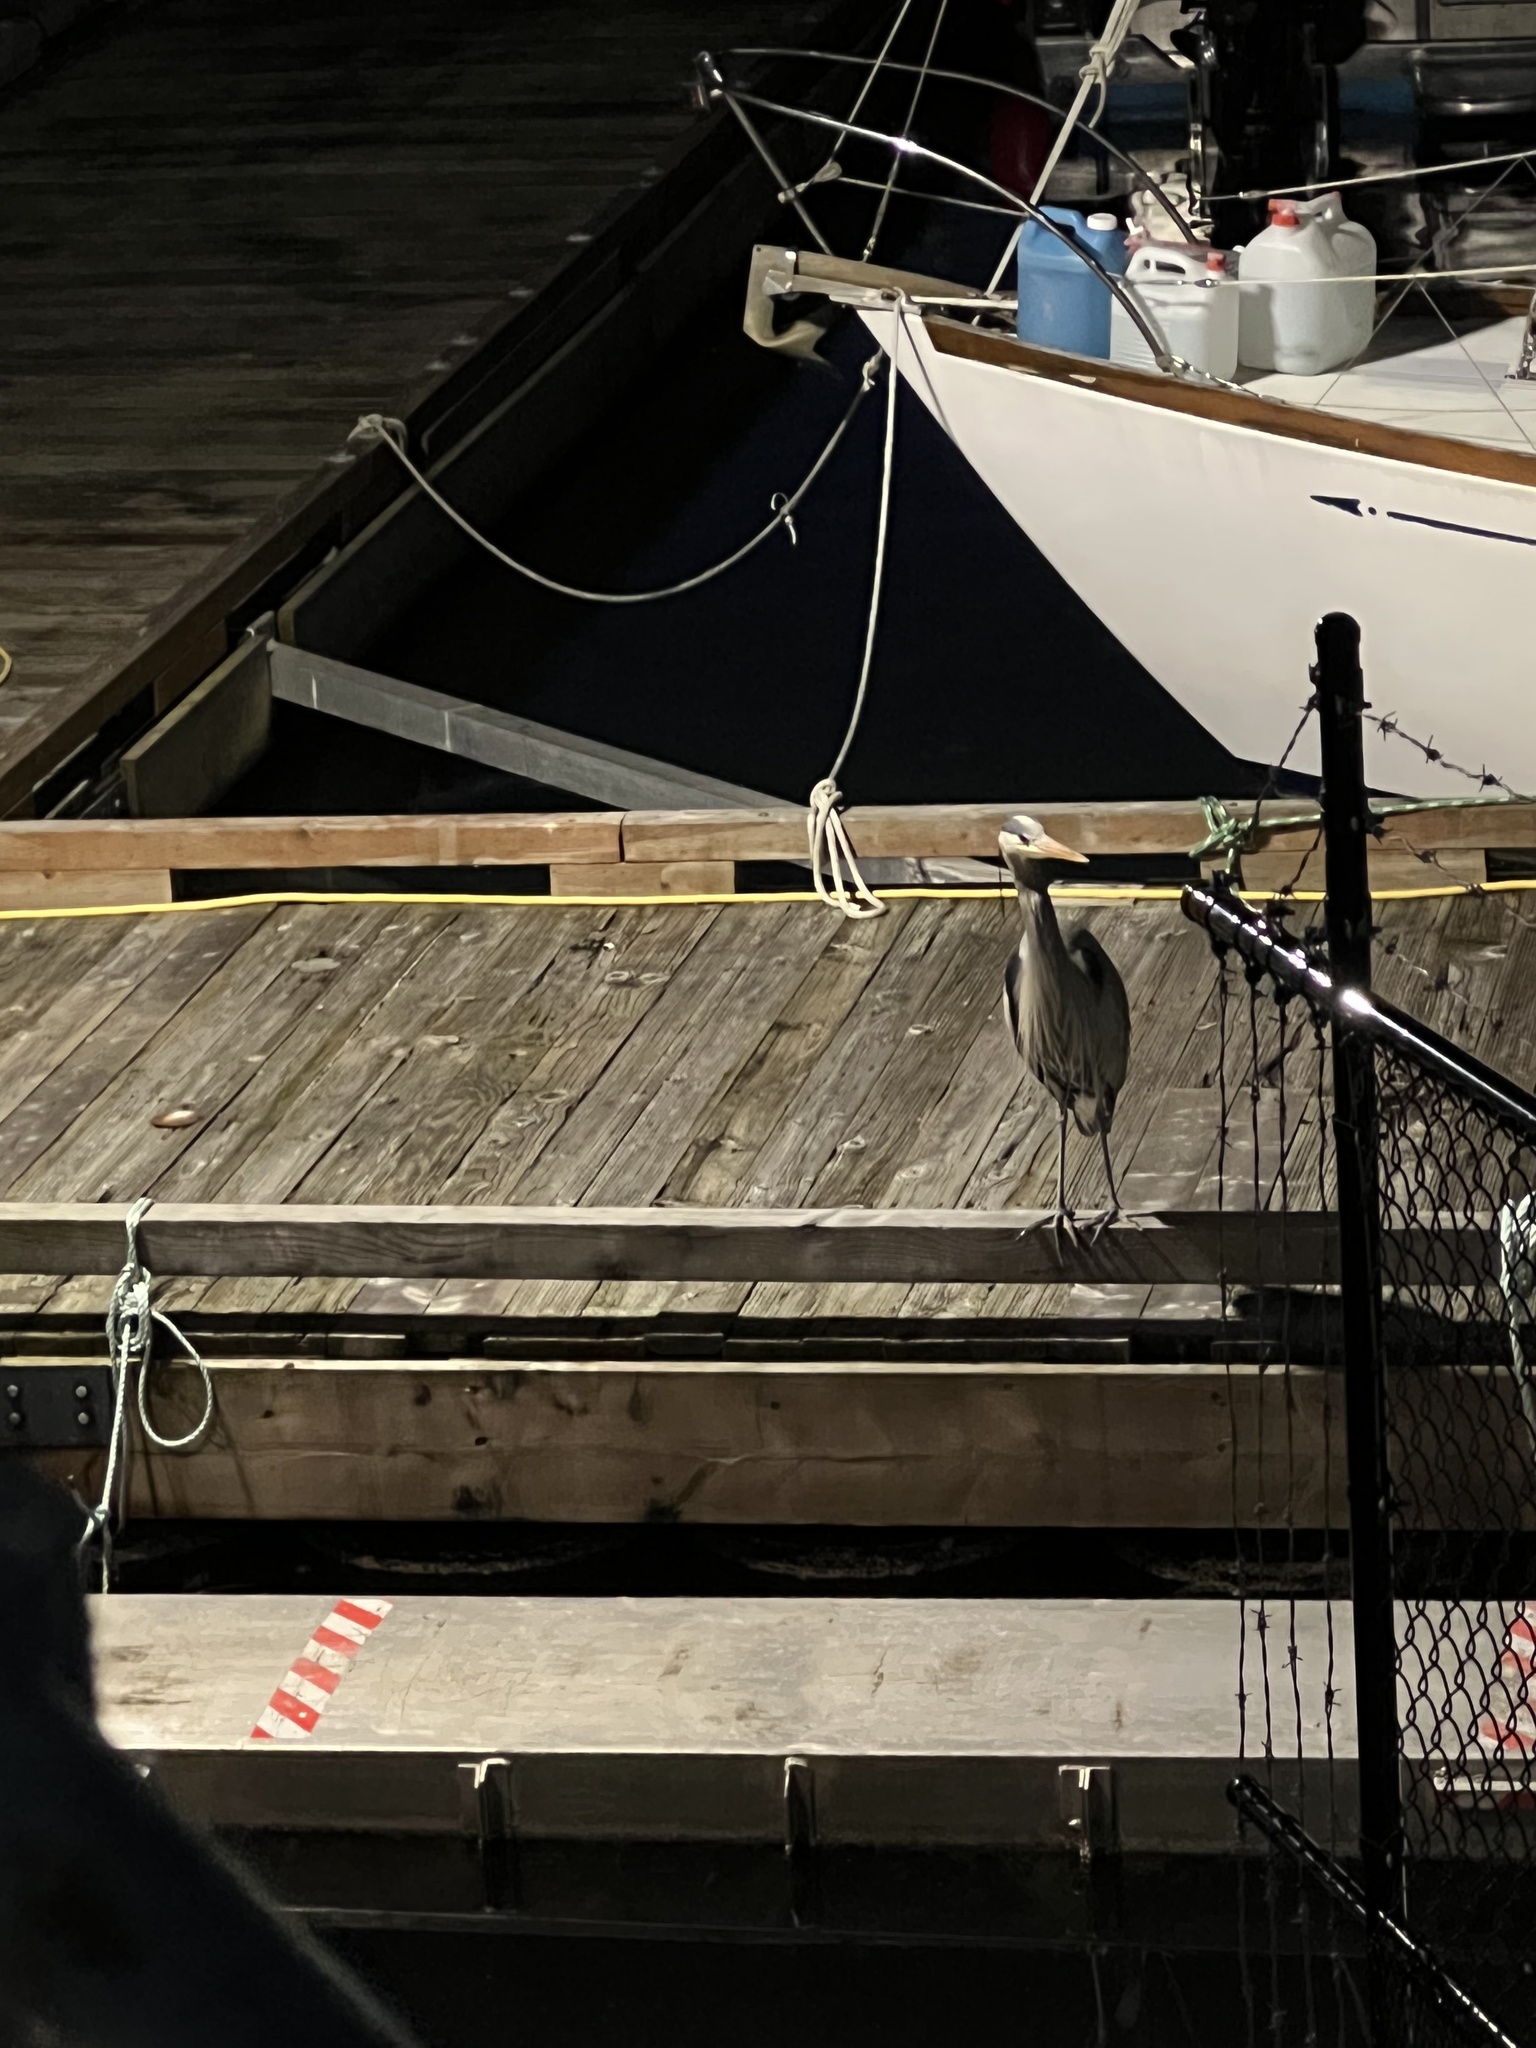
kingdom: Animalia
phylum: Chordata
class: Aves
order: Pelecaniformes
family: Ardeidae
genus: Ardea
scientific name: Ardea herodias
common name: Great blue heron
